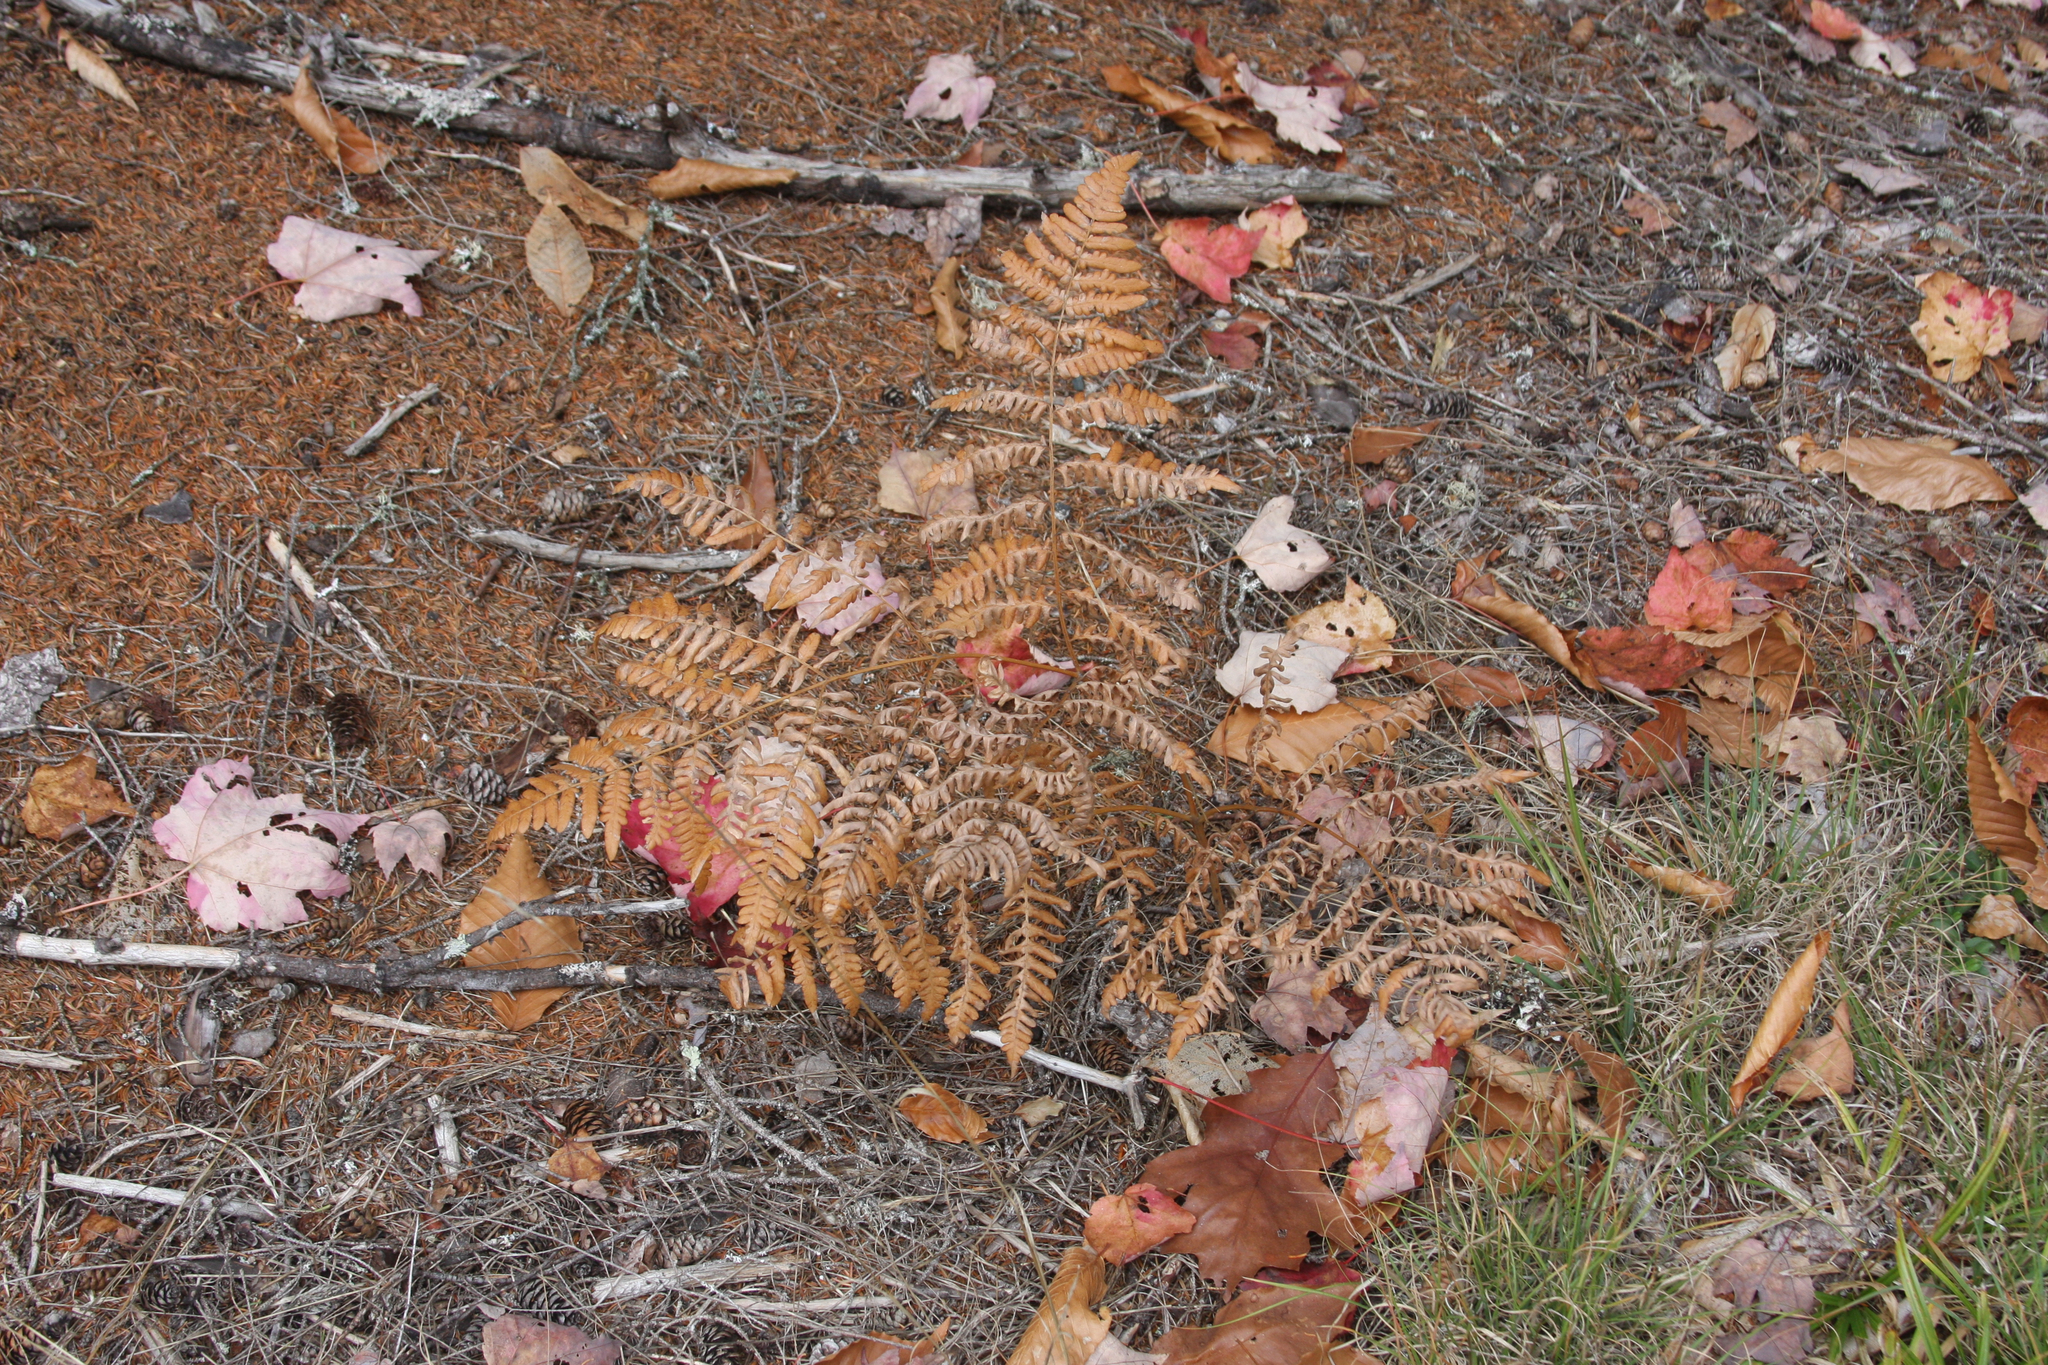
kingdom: Plantae
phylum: Tracheophyta
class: Polypodiopsida
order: Polypodiales
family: Dennstaedtiaceae
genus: Pteridium
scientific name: Pteridium aquilinum
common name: Bracken
